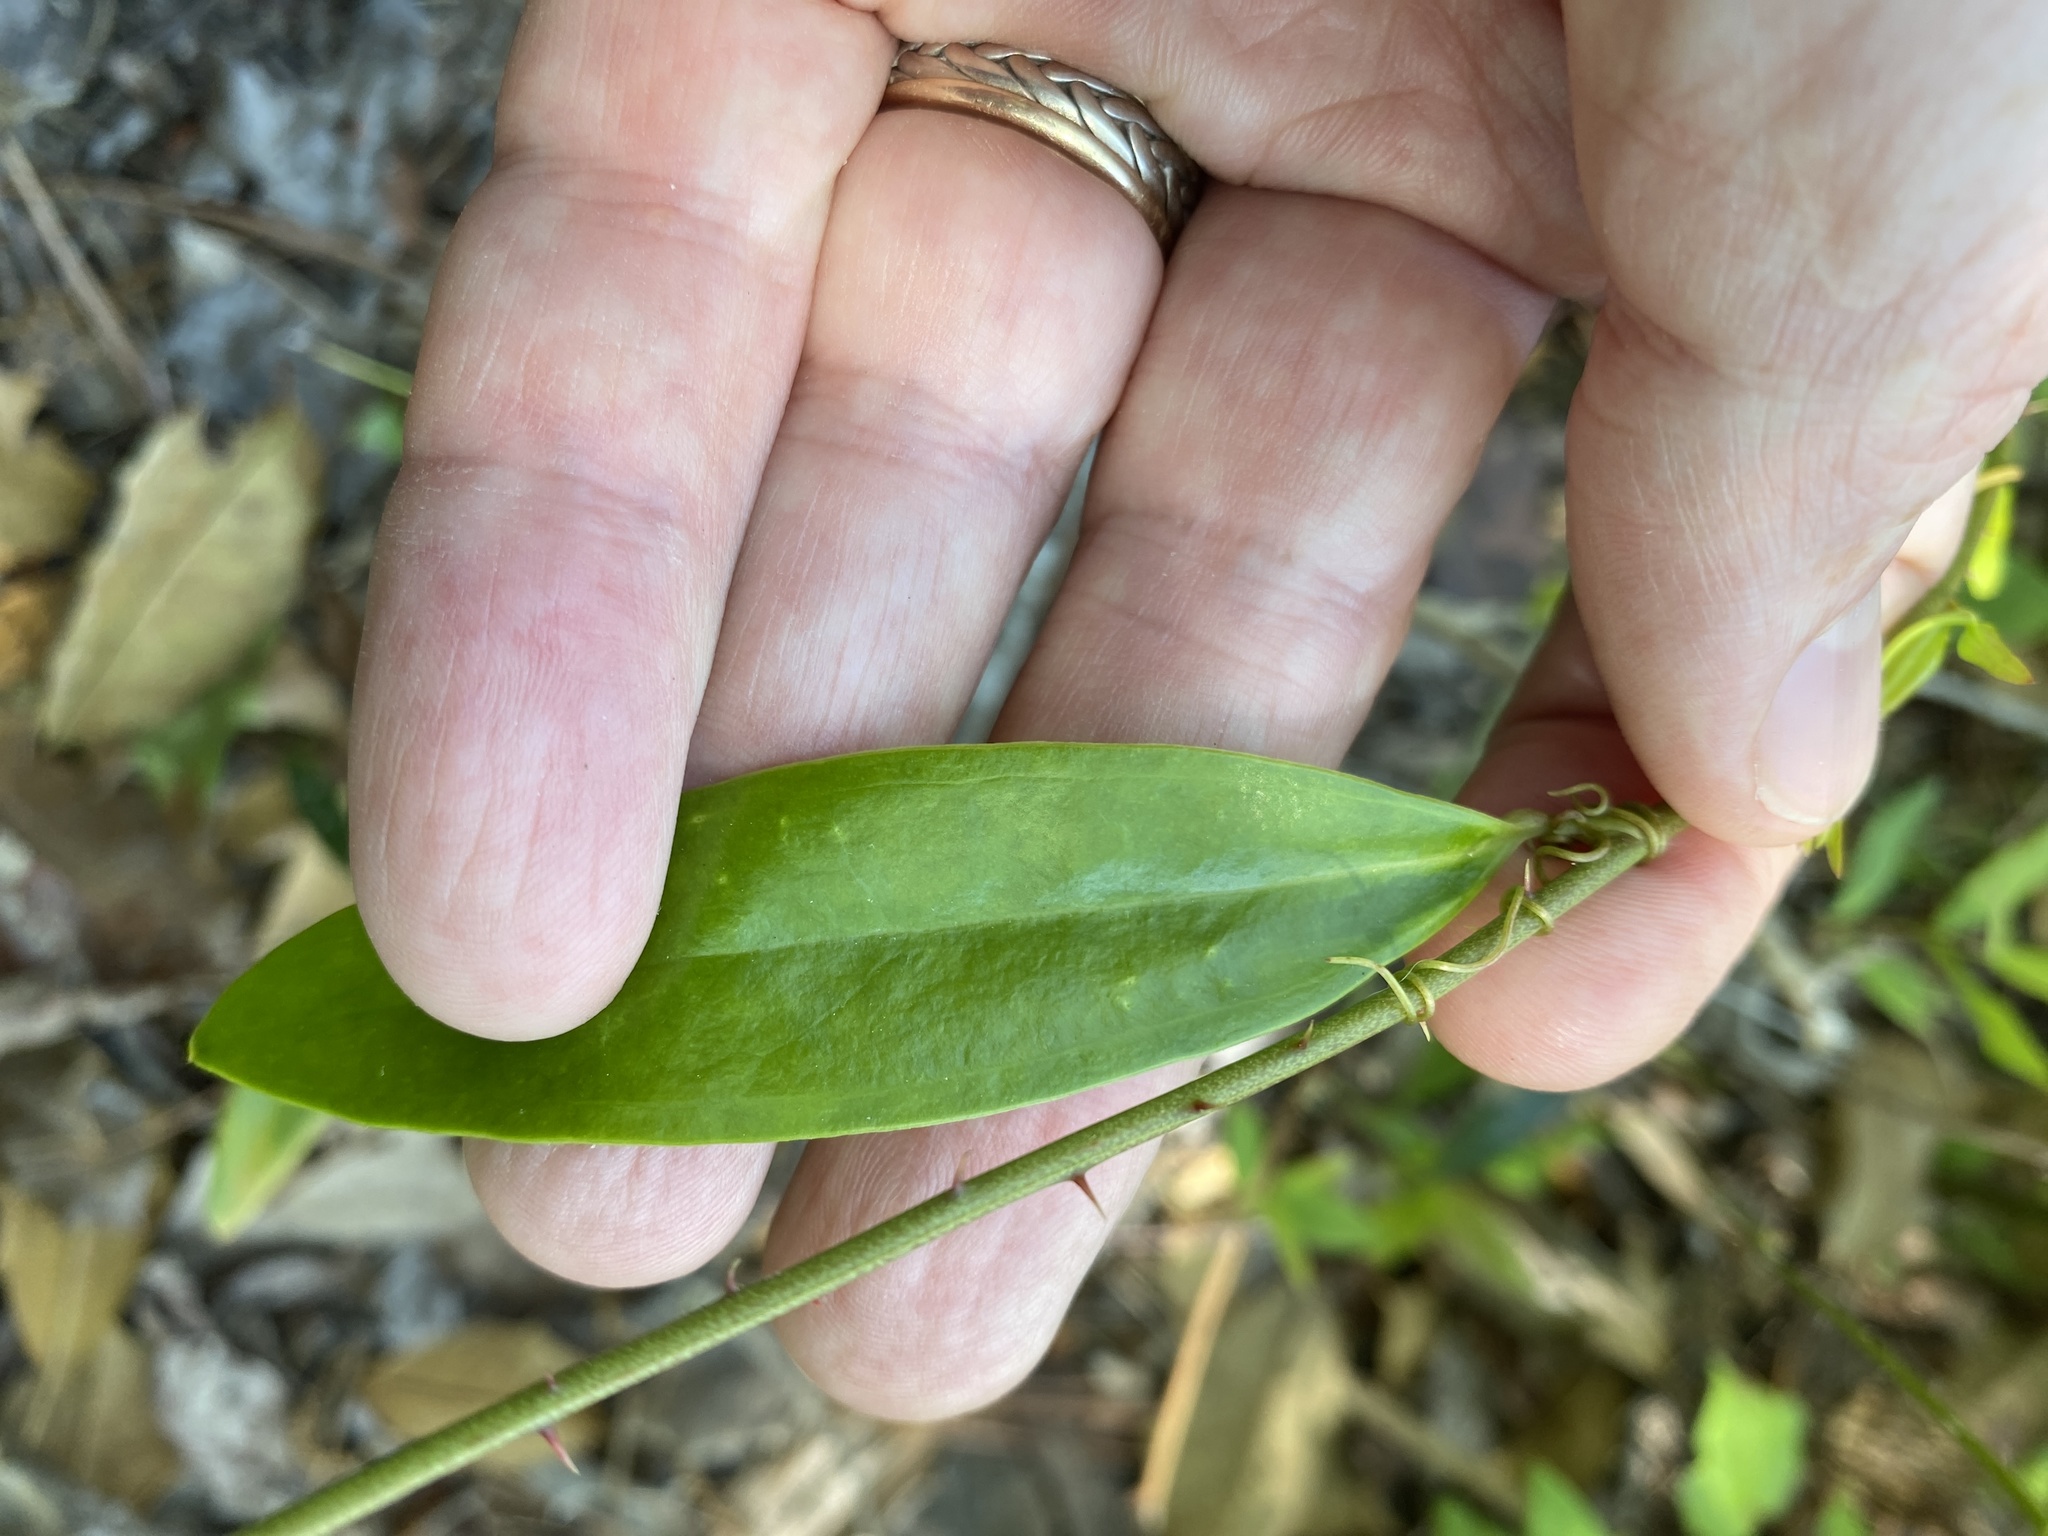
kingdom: Plantae
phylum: Tracheophyta
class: Liliopsida
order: Liliales
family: Smilacaceae
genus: Smilax
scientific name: Smilax laurifolia
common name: Bamboovine
